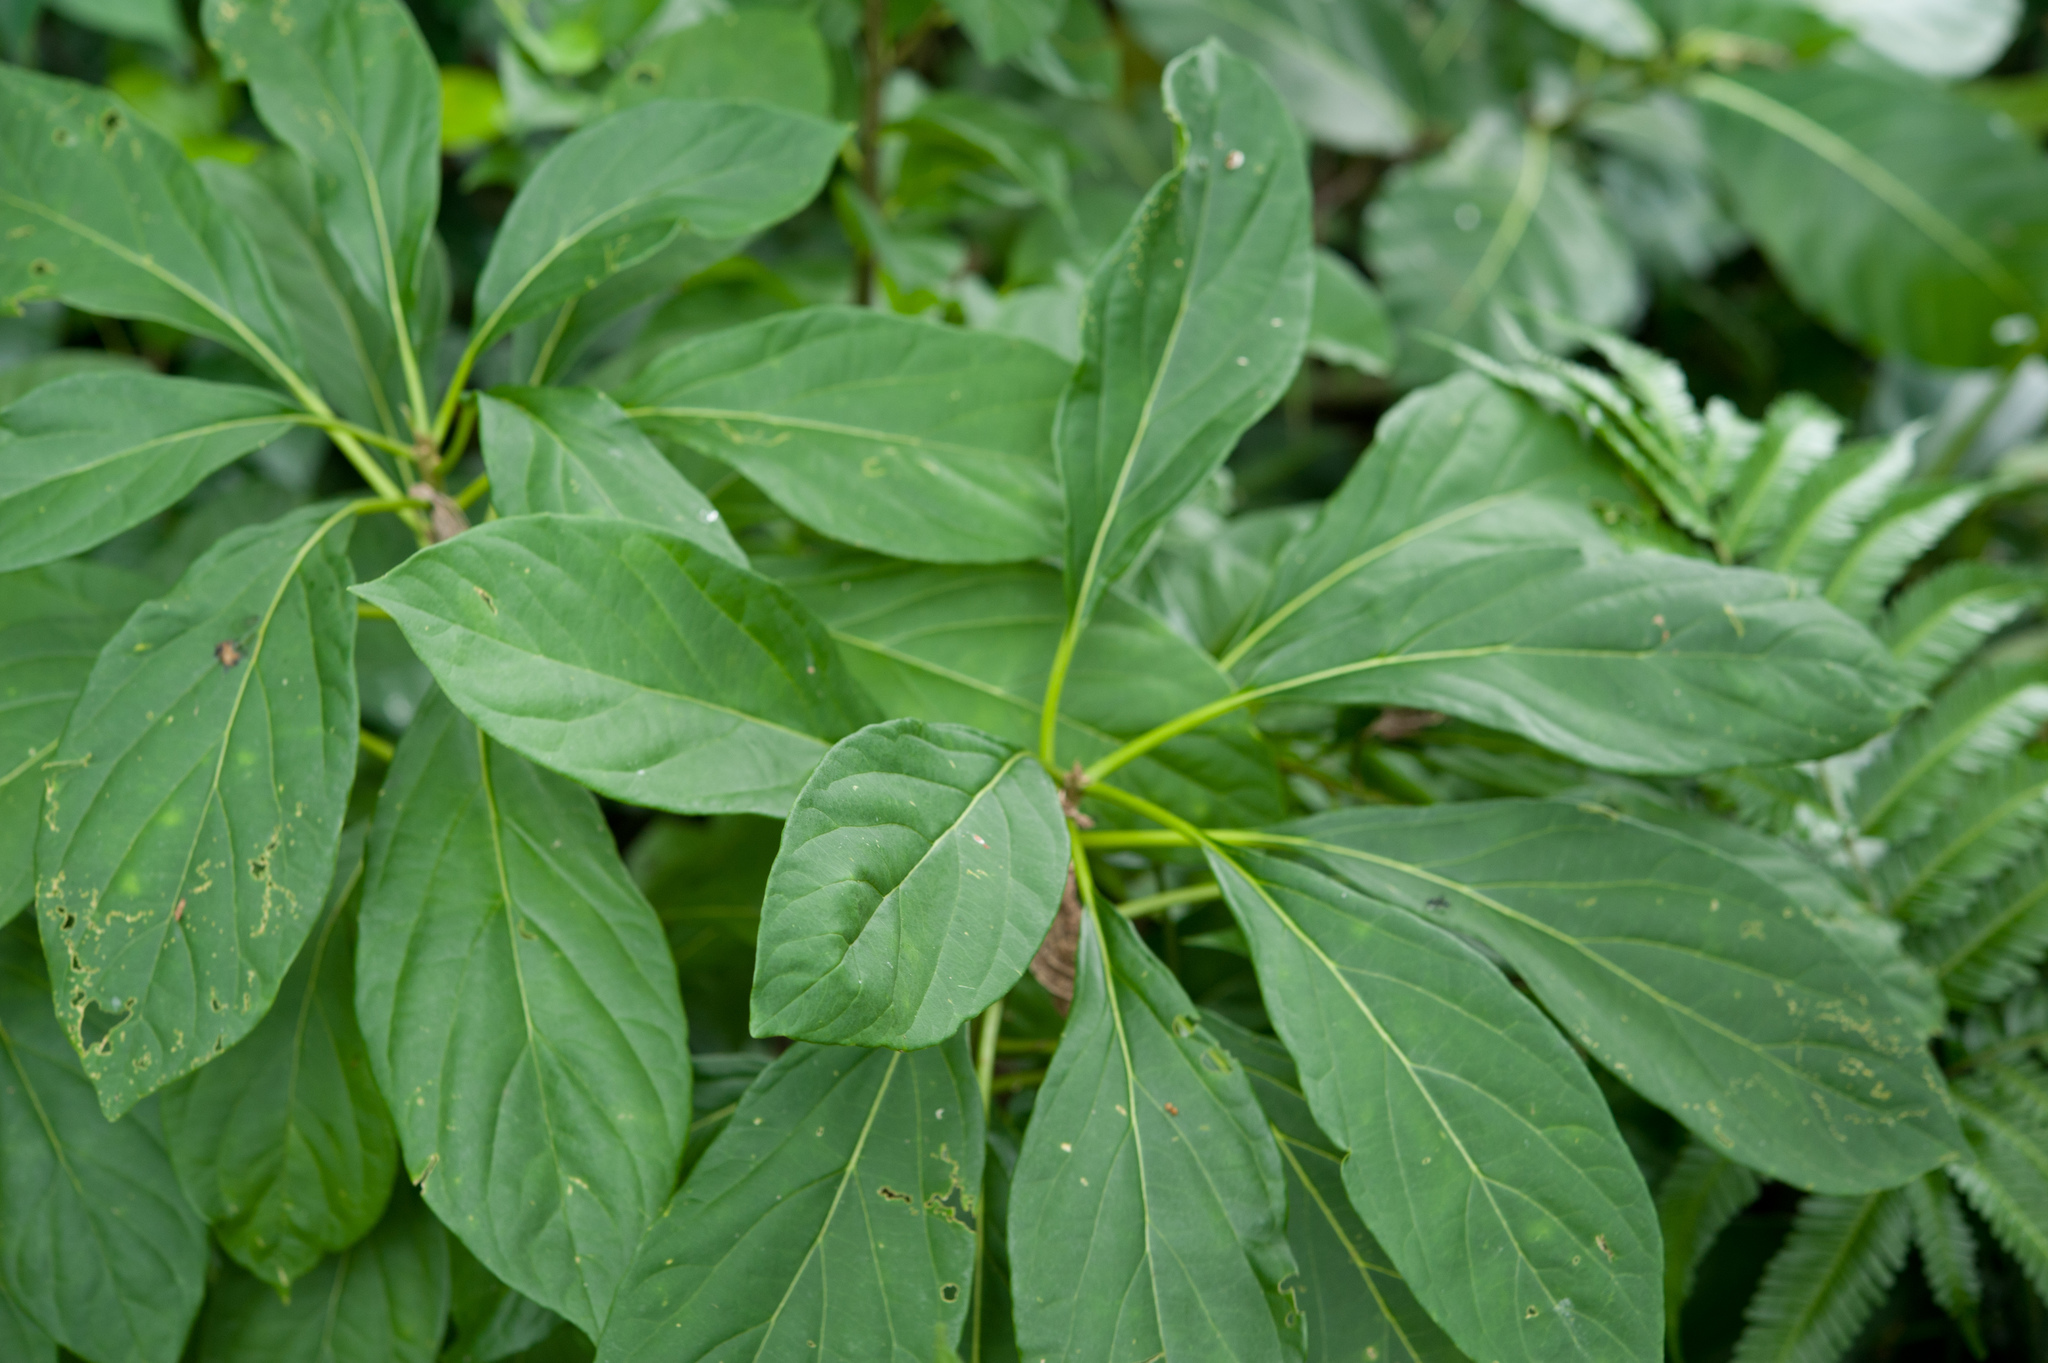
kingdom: Plantae
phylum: Tracheophyta
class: Magnoliopsida
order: Icacinales
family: Icacinaceae
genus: Nothapodytes
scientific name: Nothapodytes nimmoniana
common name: Nothapodytes
